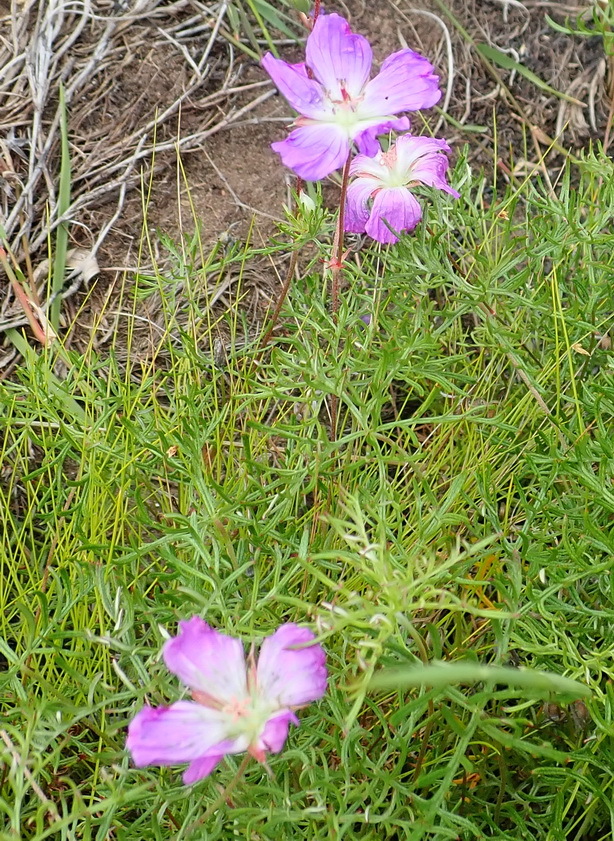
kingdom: Plantae
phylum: Tracheophyta
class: Magnoliopsida
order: Geraniales
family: Geraniaceae
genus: Geranium
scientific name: Geranium incanum
